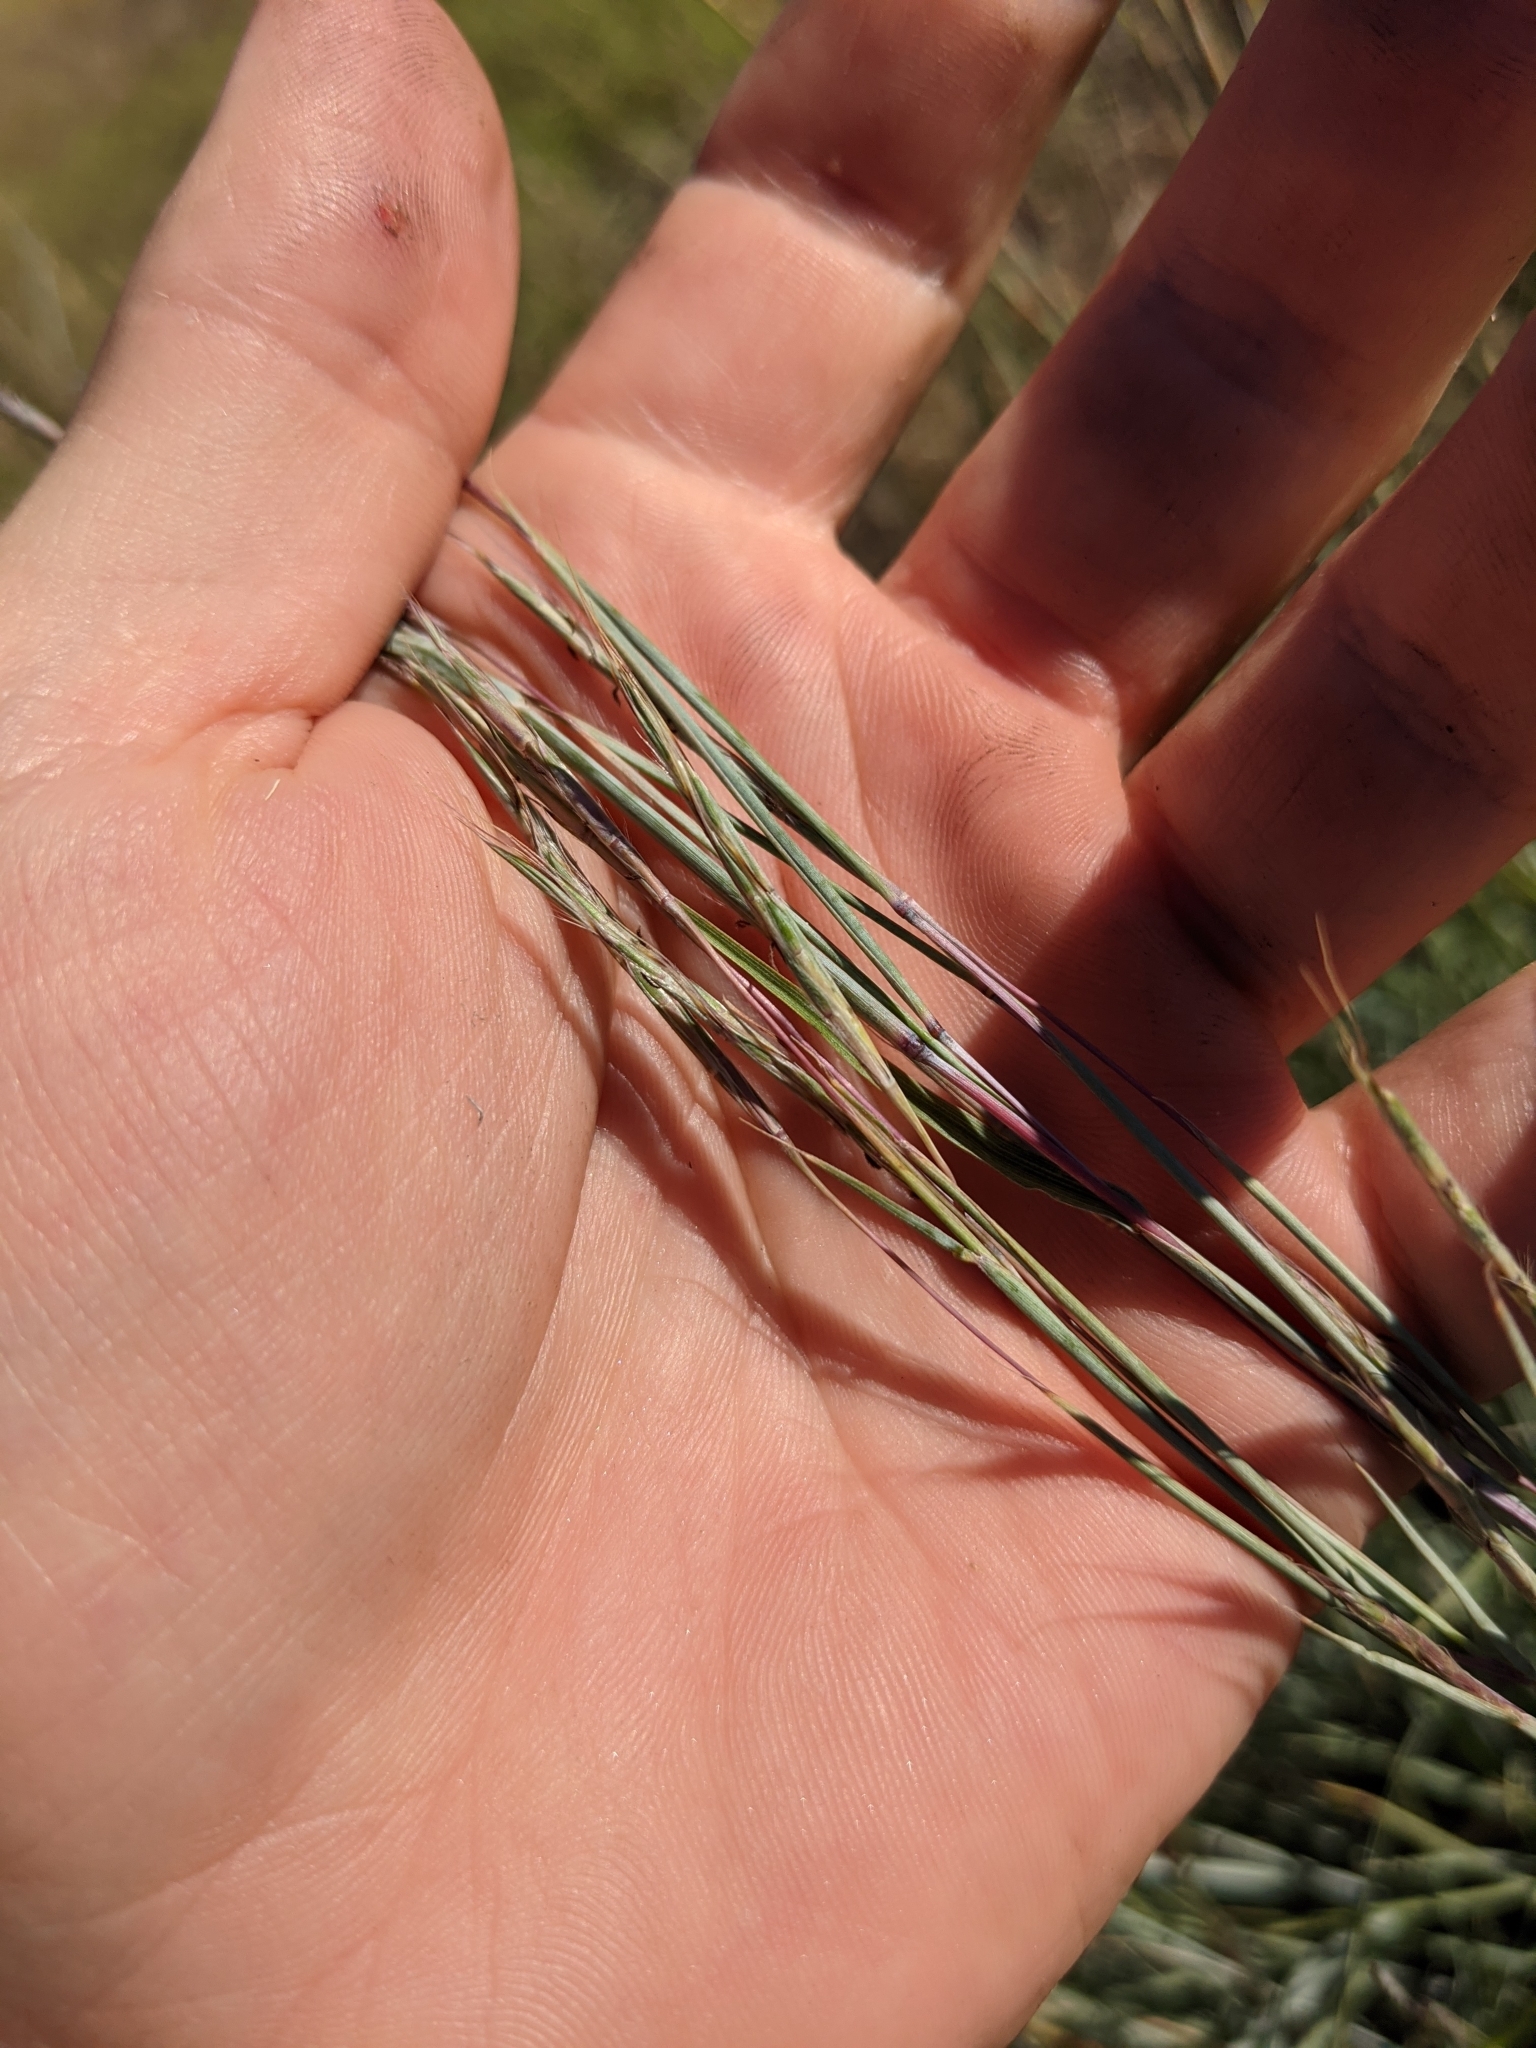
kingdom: Plantae
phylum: Tracheophyta
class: Liliopsida
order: Poales
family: Poaceae
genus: Schizachyrium
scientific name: Schizachyrium scoparium
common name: Little bluestem
